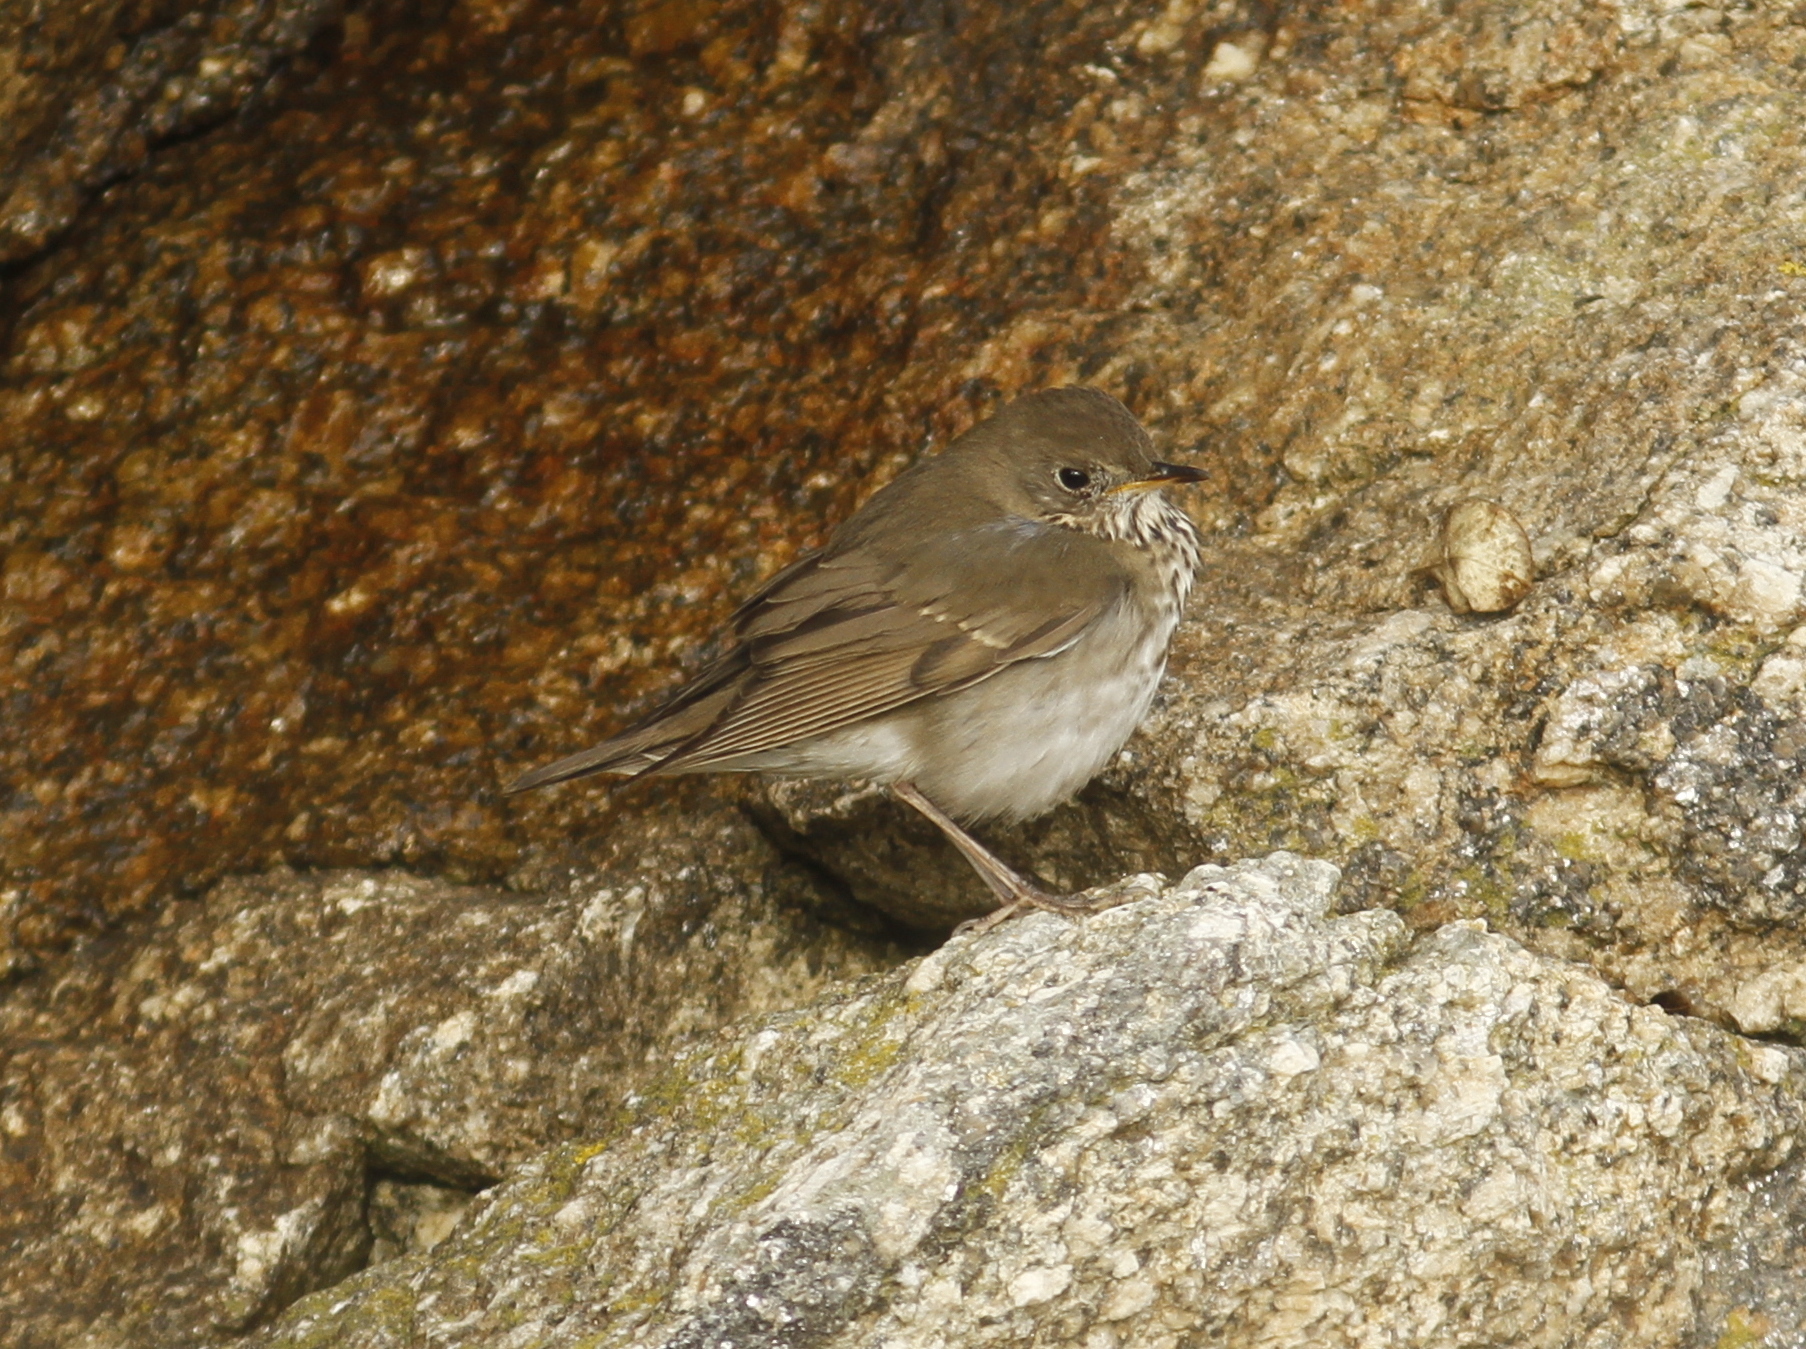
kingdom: Animalia
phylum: Chordata
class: Aves
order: Passeriformes
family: Turdidae
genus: Catharus
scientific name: Catharus minimus
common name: Grey-cheeked thrush
